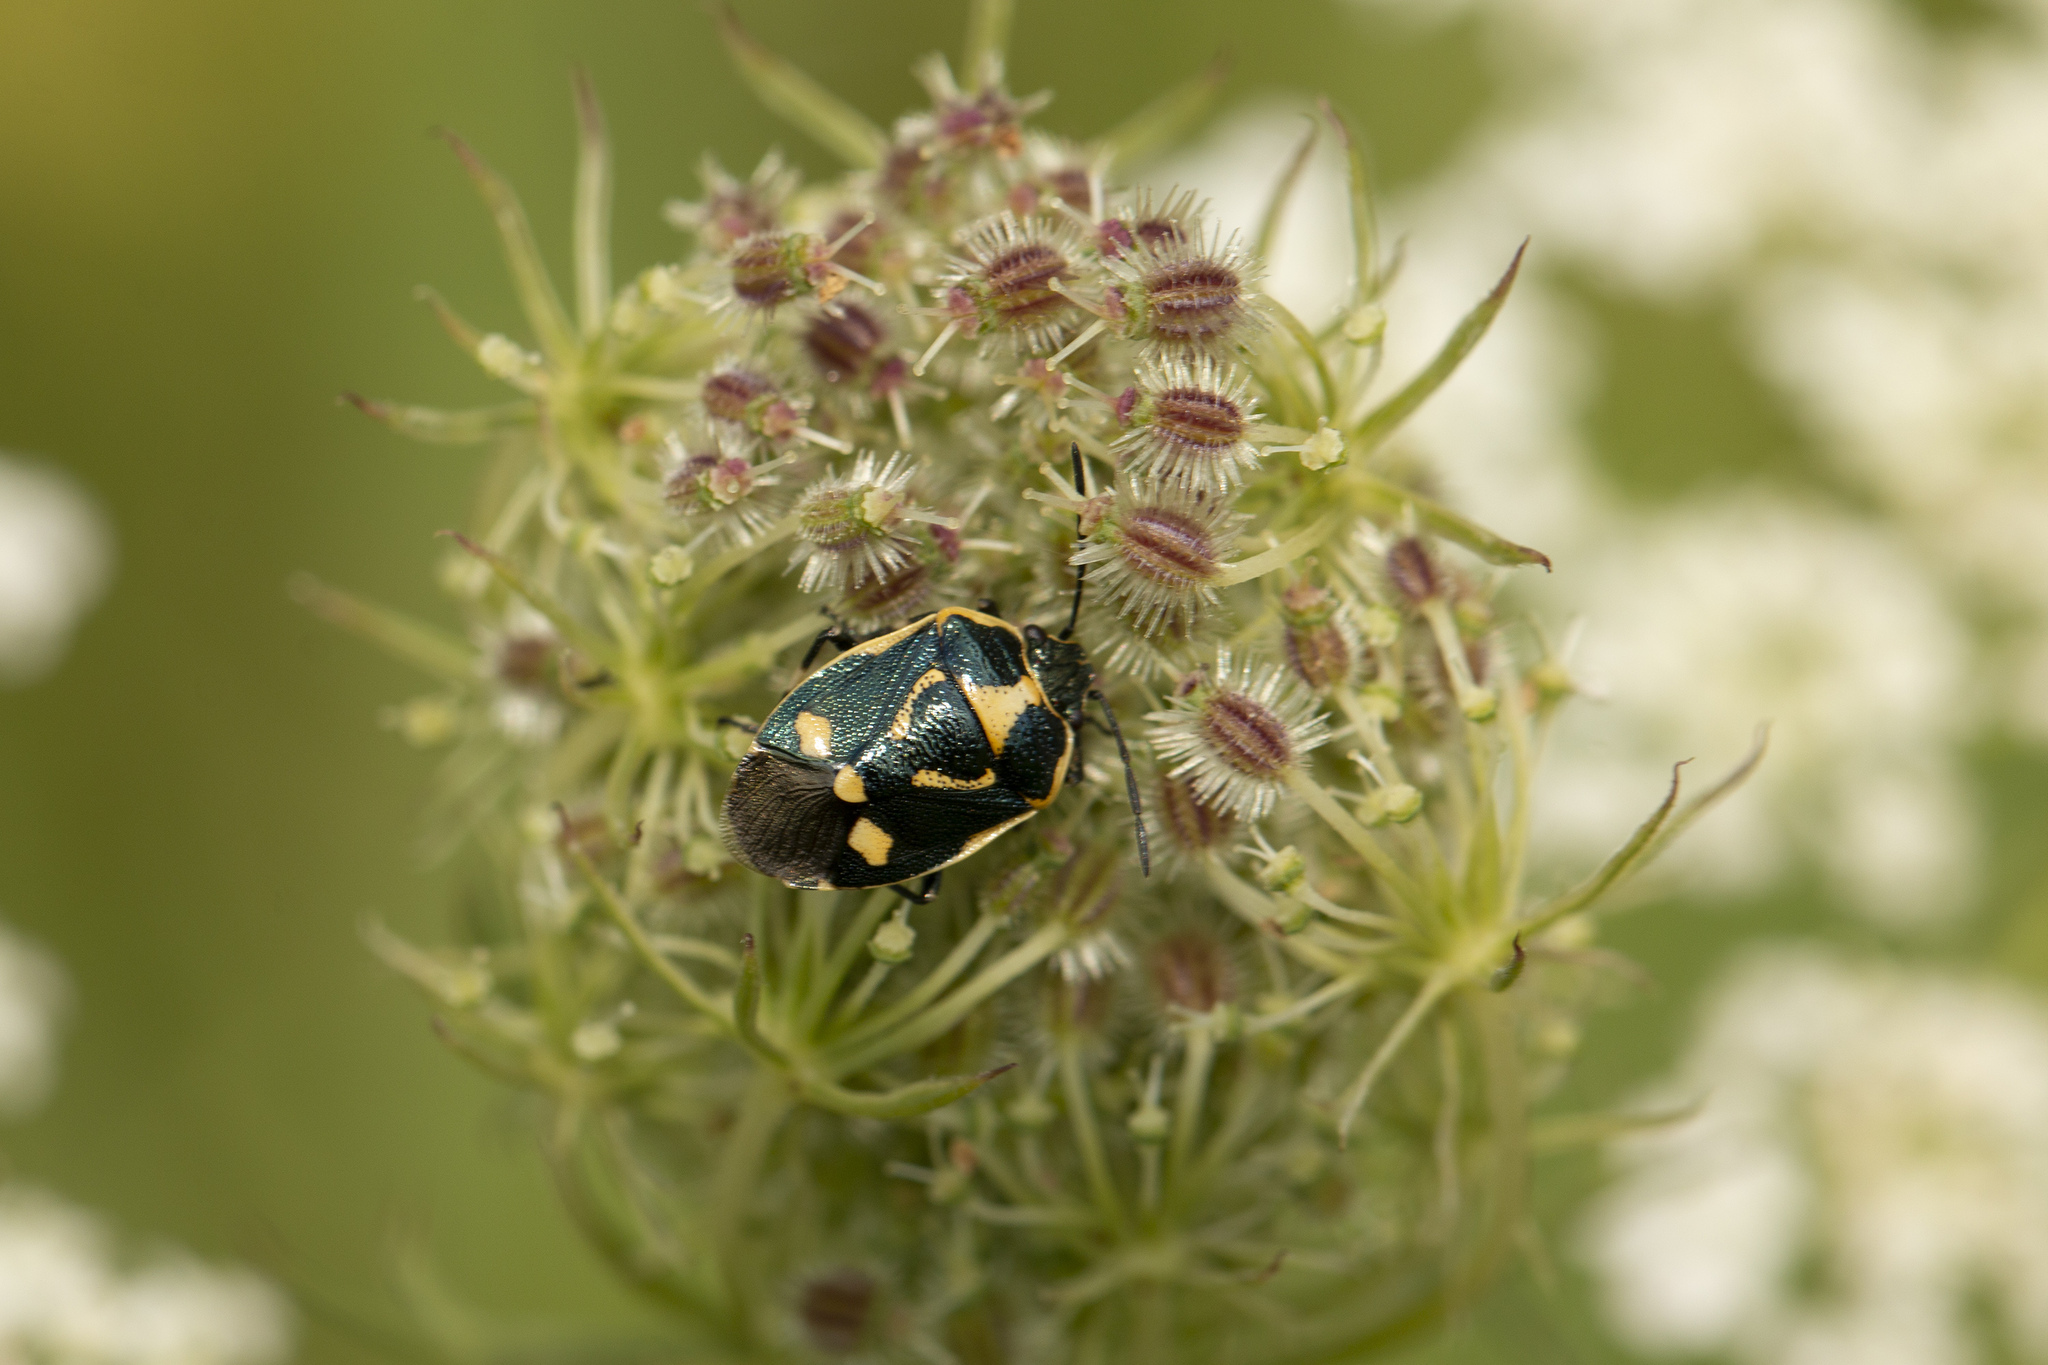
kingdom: Animalia
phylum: Arthropoda
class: Insecta
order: Hemiptera
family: Pentatomidae
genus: Eurydema
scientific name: Eurydema oleracea
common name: Cabbage bug
